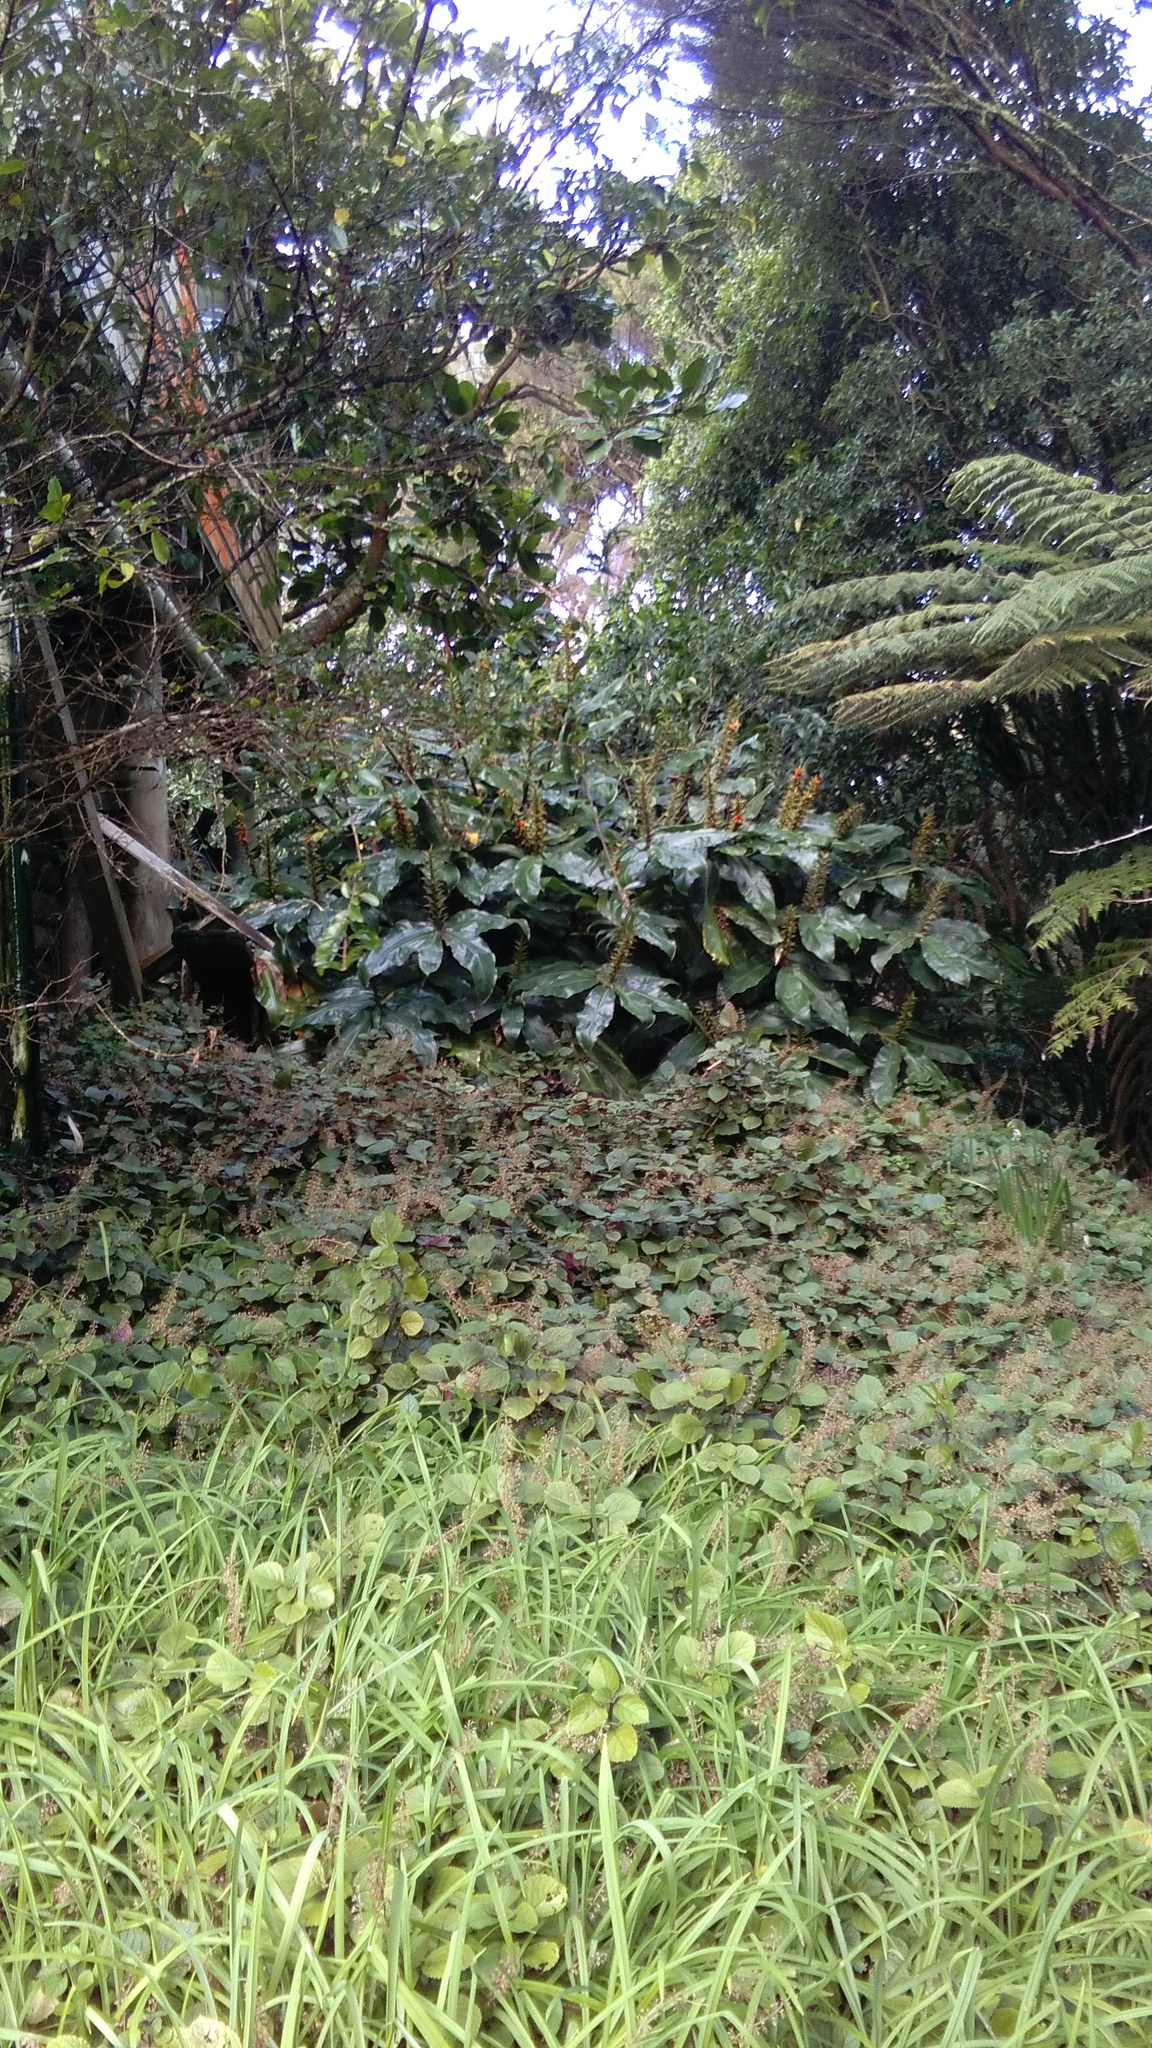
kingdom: Plantae
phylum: Tracheophyta
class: Liliopsida
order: Zingiberales
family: Zingiberaceae
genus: Hedychium
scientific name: Hedychium gardnerianum
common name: Himalayan ginger
